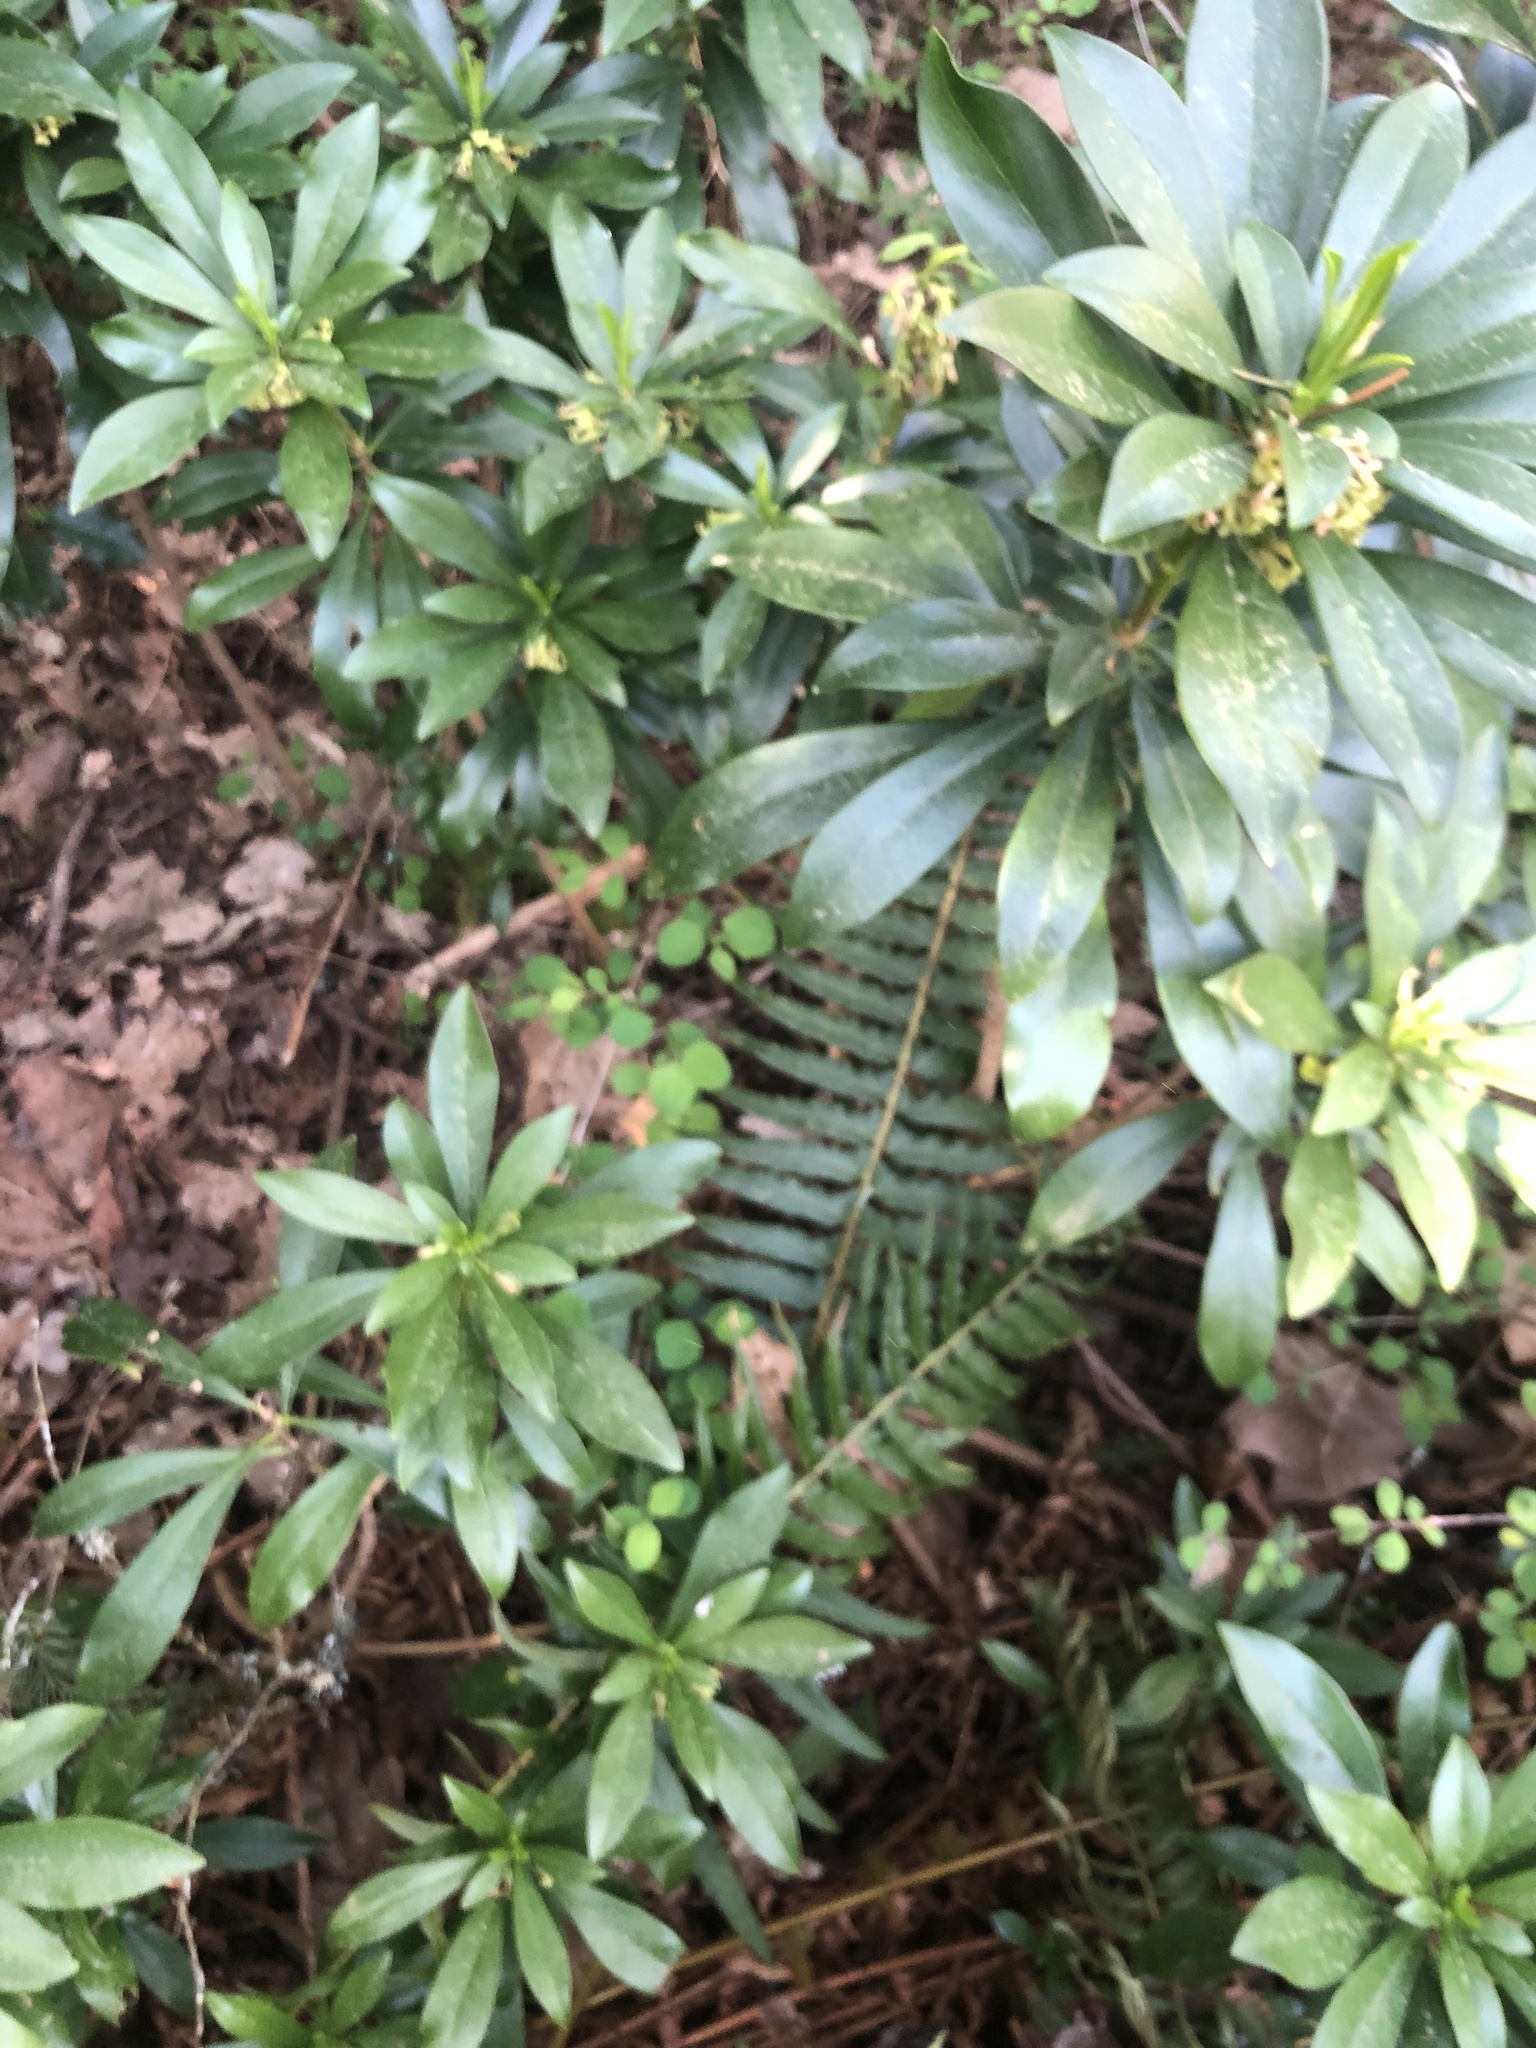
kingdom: Plantae
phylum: Tracheophyta
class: Magnoliopsida
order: Malvales
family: Thymelaeaceae
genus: Daphne
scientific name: Daphne laureola
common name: Spurge-laurel
